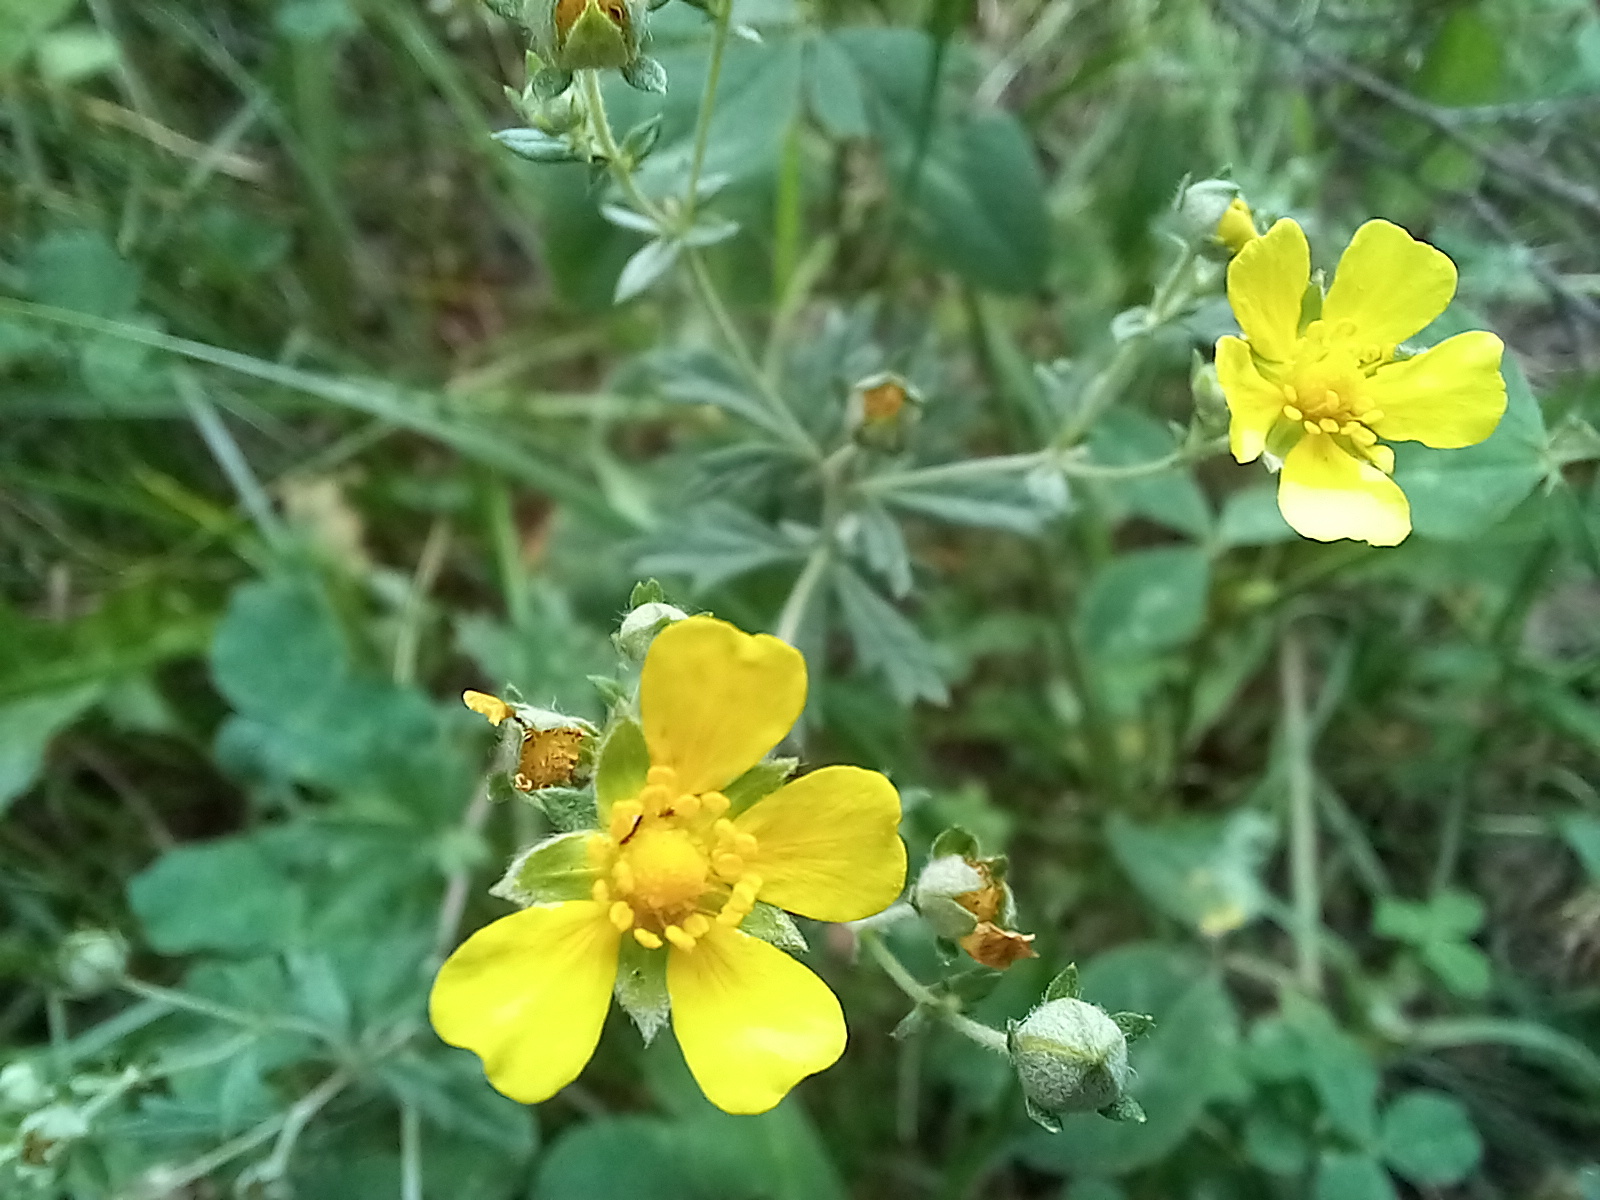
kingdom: Plantae
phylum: Tracheophyta
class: Magnoliopsida
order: Rosales
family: Rosaceae
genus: Potentilla
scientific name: Potentilla argentea
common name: Hoary cinquefoil
